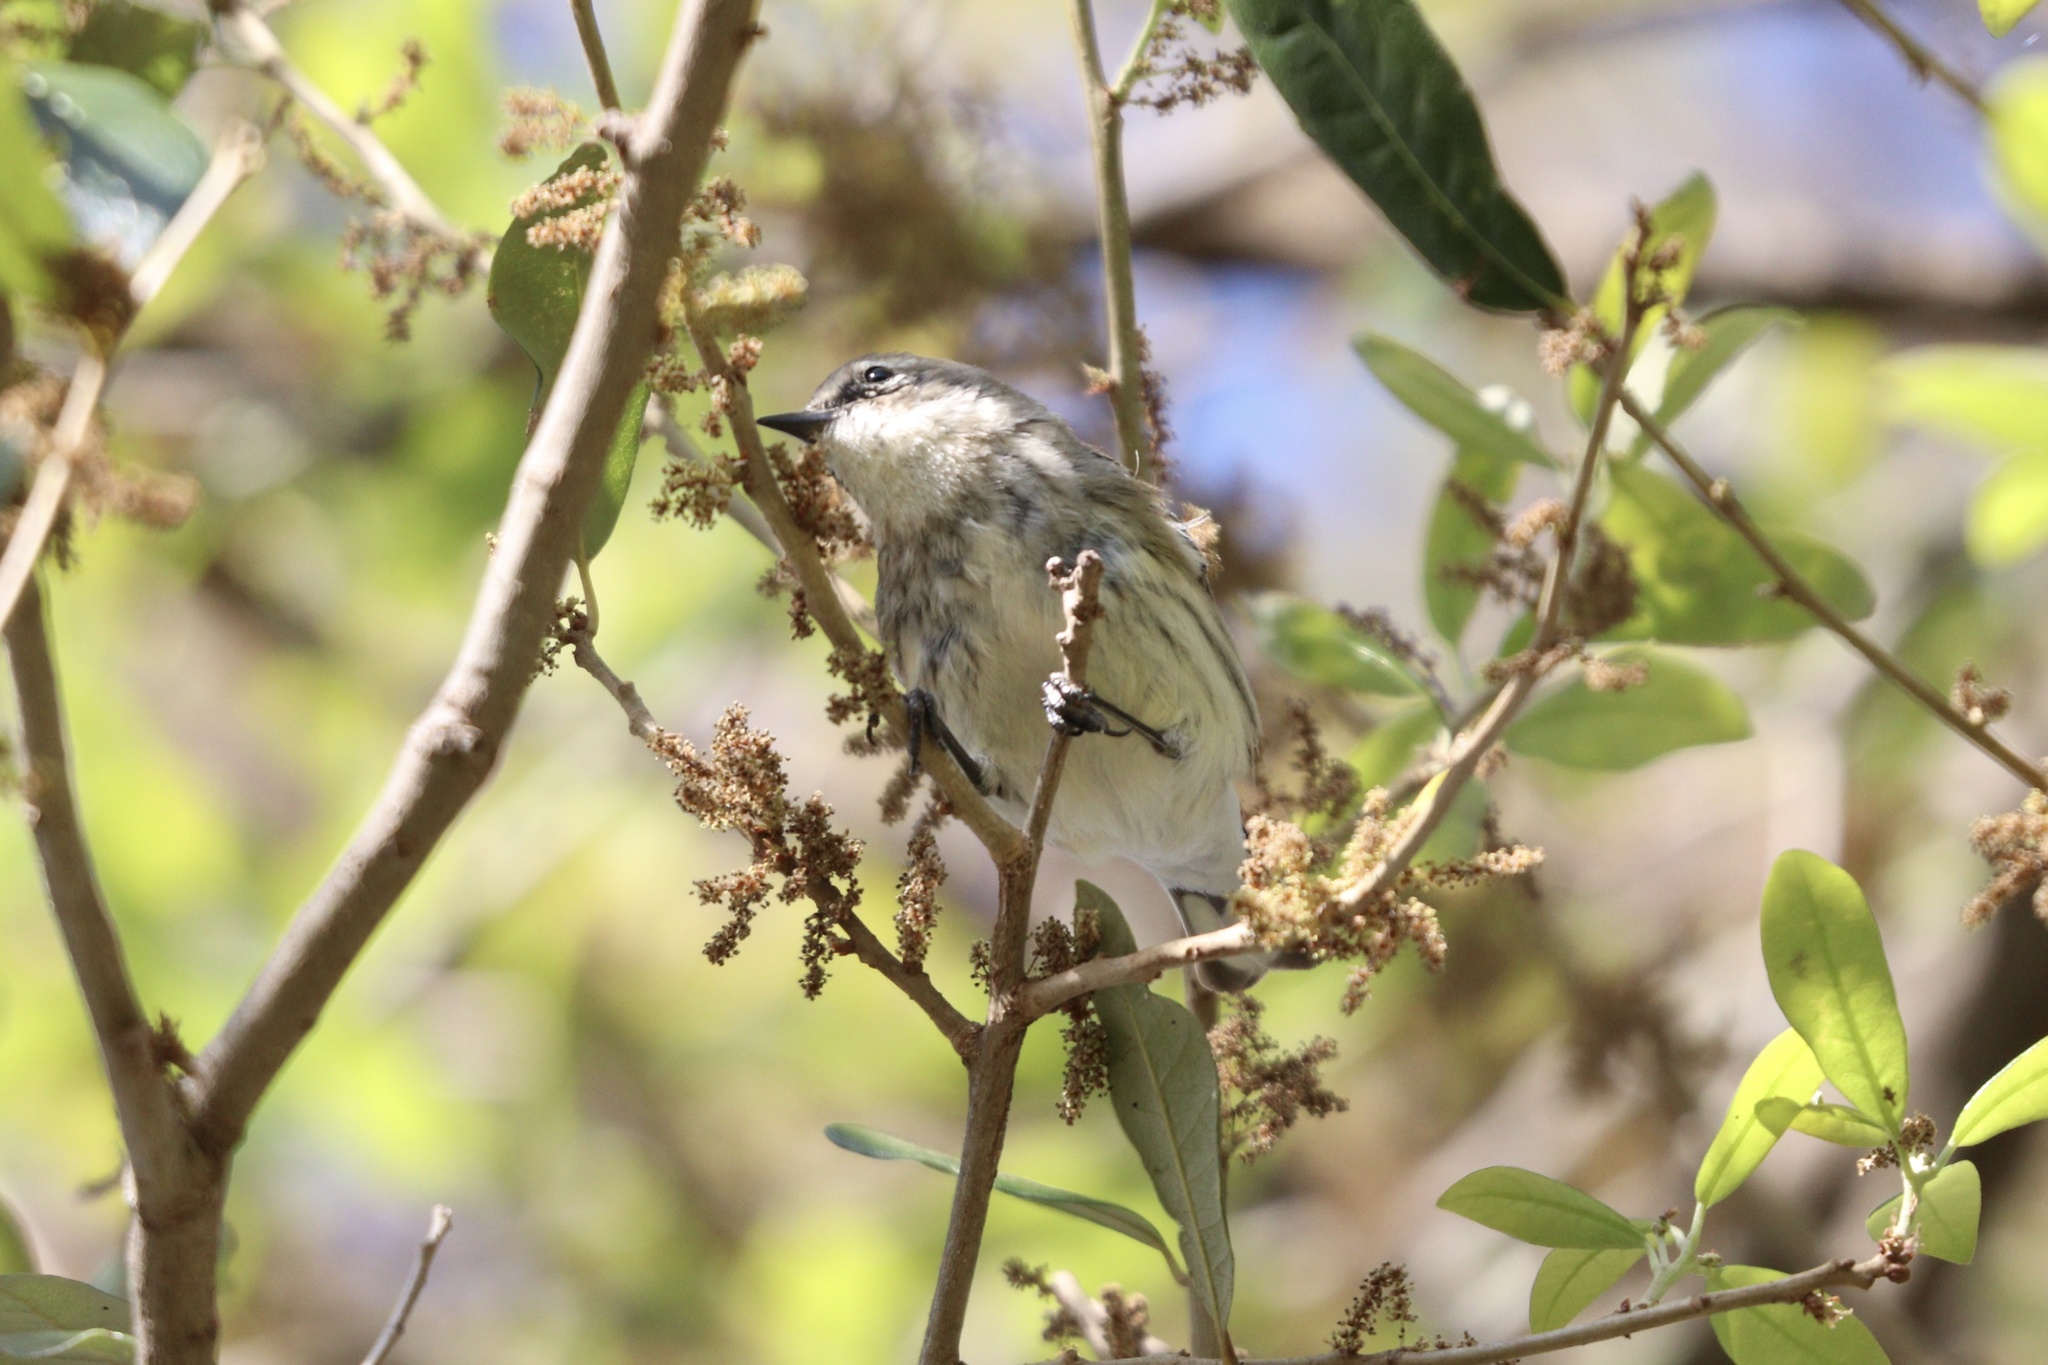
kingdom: Animalia
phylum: Chordata
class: Aves
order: Passeriformes
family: Parulidae
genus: Setophaga
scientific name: Setophaga coronata
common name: Myrtle warbler
